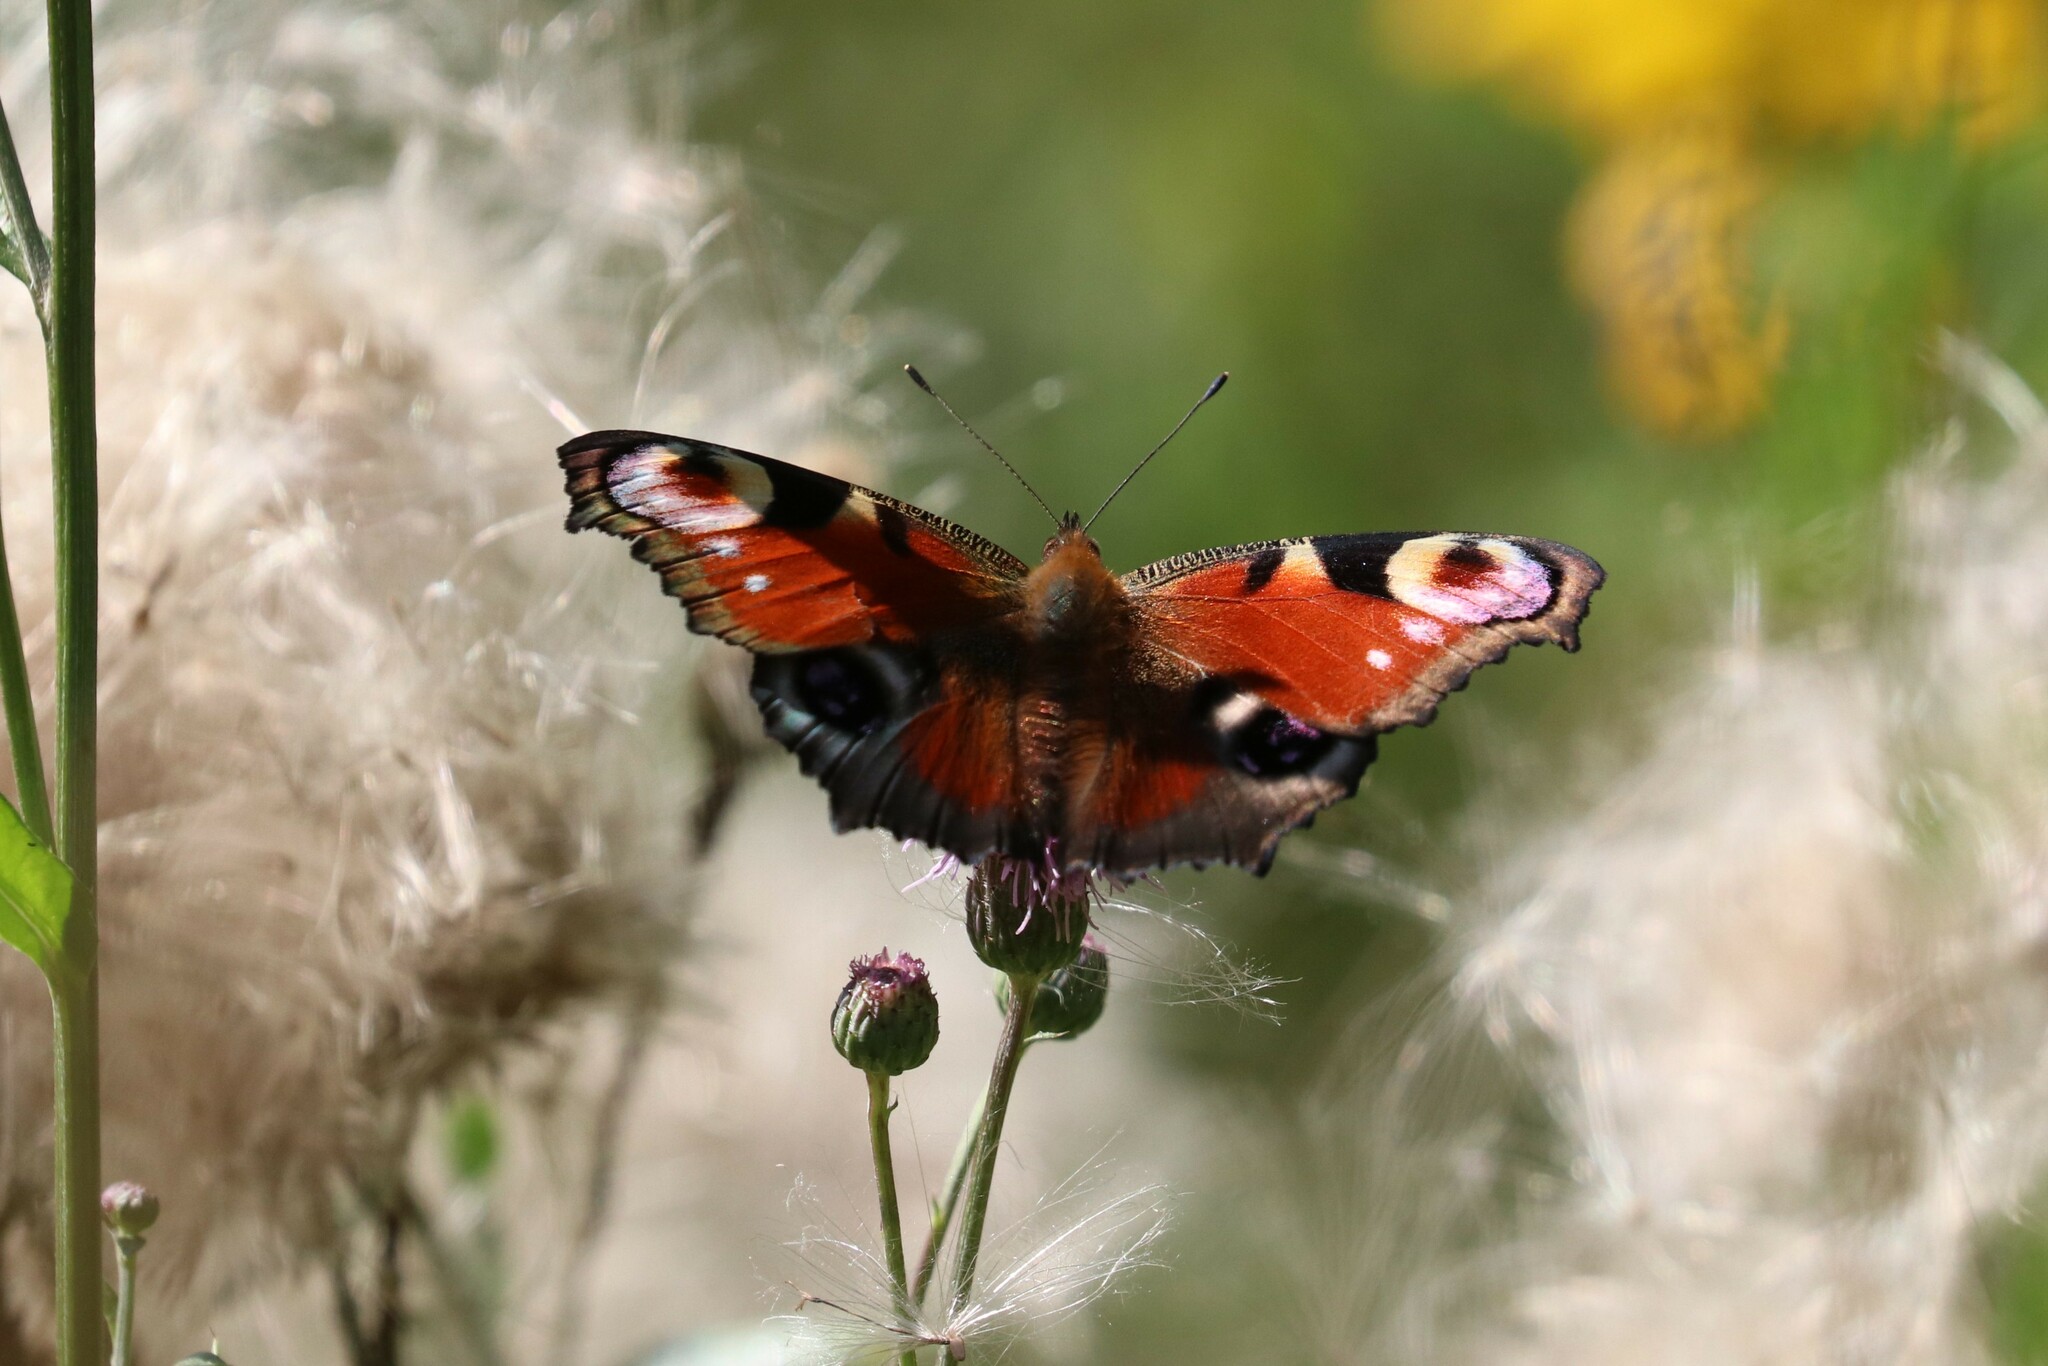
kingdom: Animalia
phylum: Arthropoda
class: Insecta
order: Lepidoptera
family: Nymphalidae
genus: Aglais
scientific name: Aglais io
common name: Peacock
